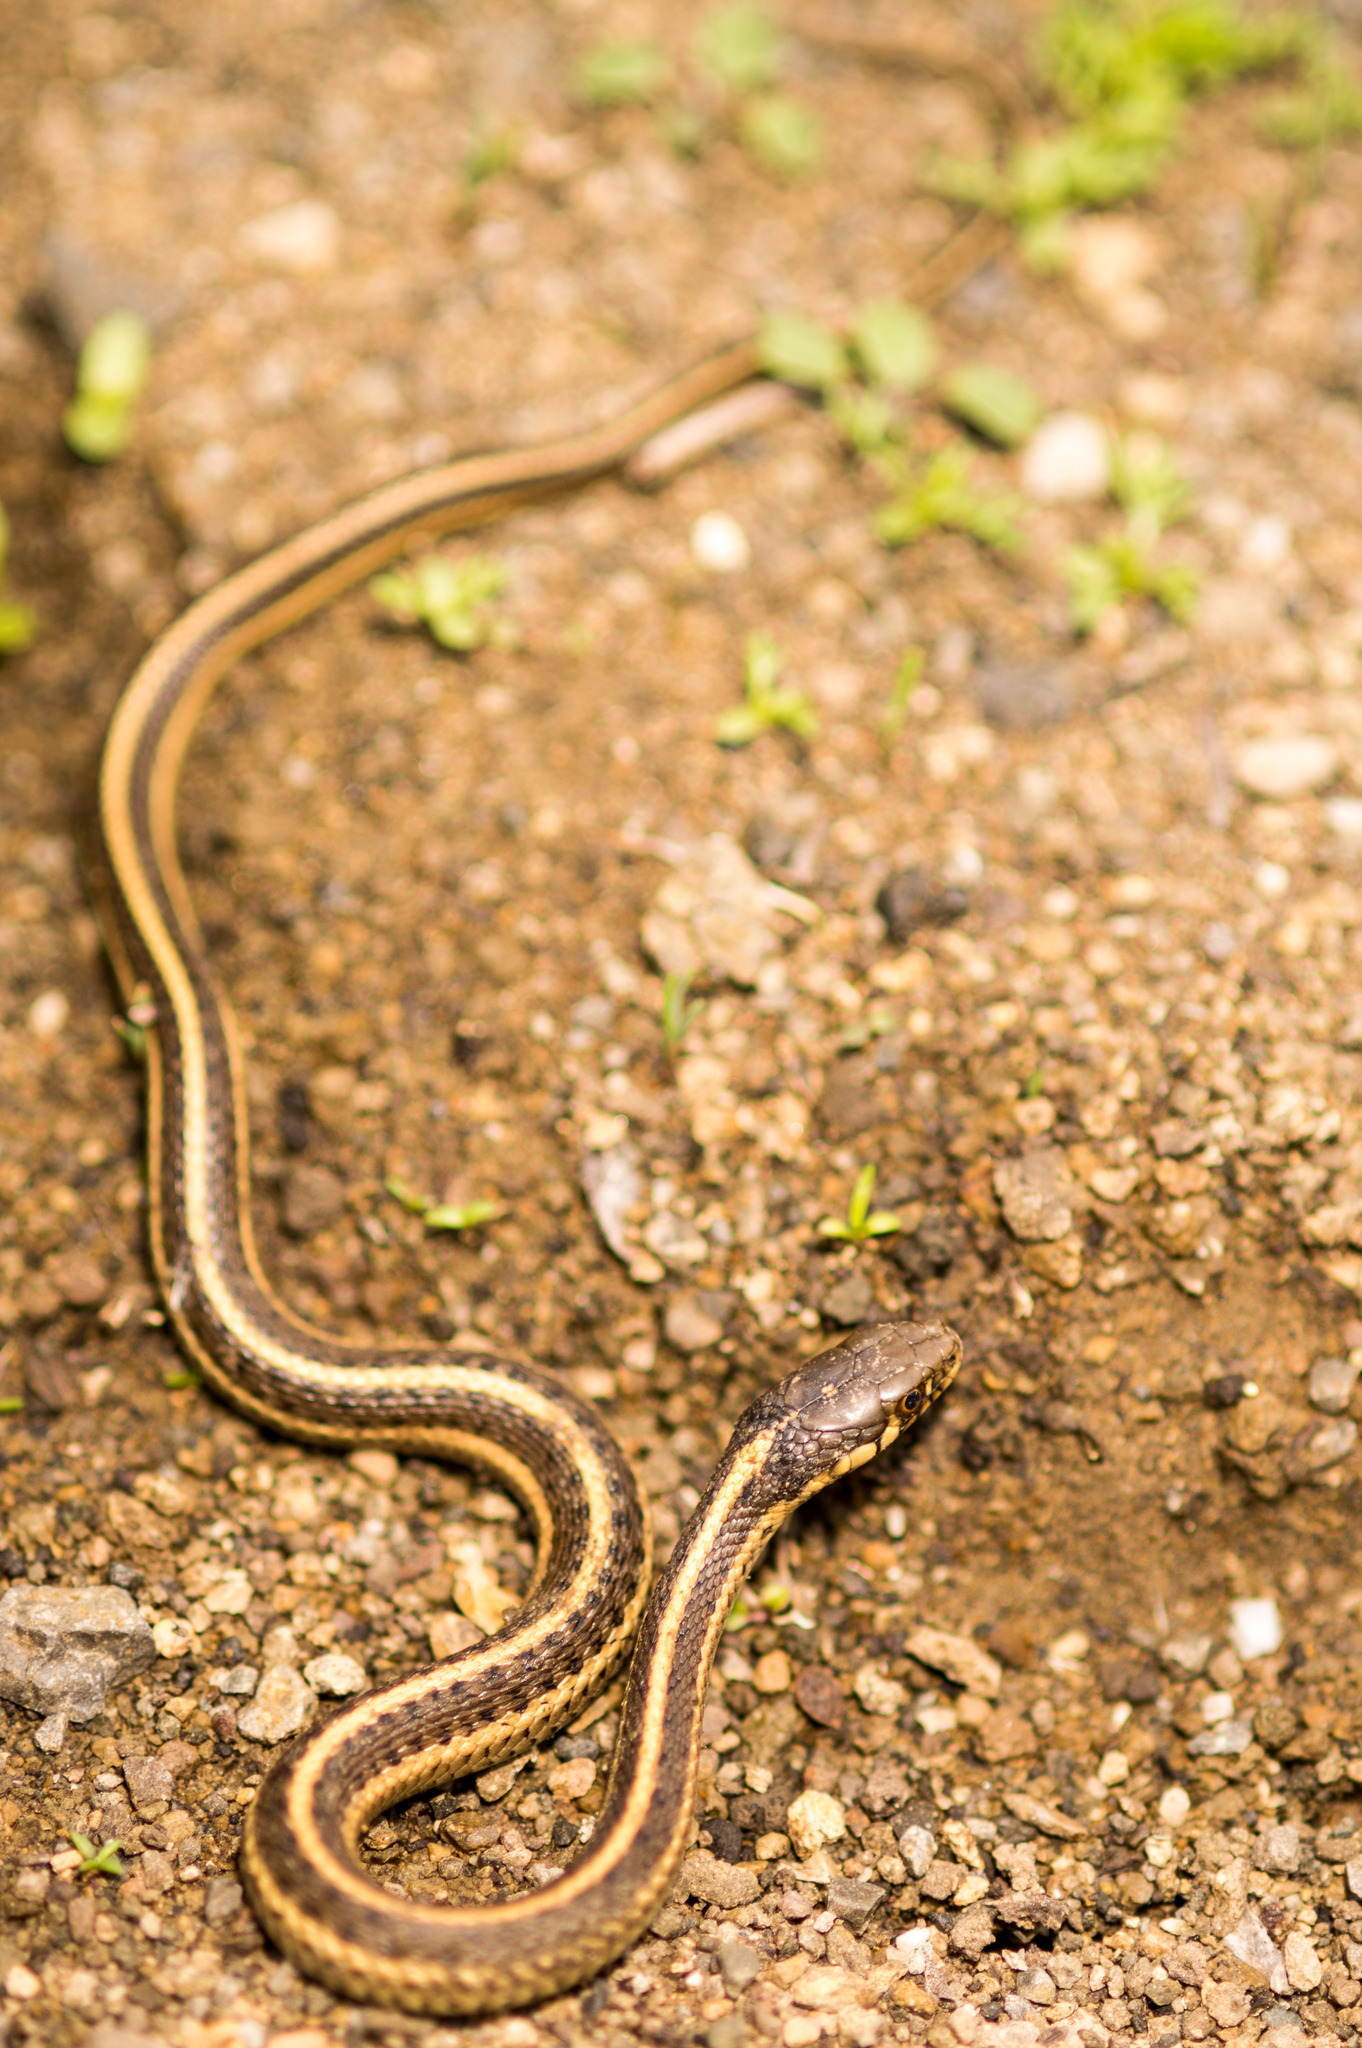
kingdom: Animalia
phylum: Chordata
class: Squamata
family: Colubridae
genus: Thamnophis
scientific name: Thamnophis elegans
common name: Western terrestrial garter snake
